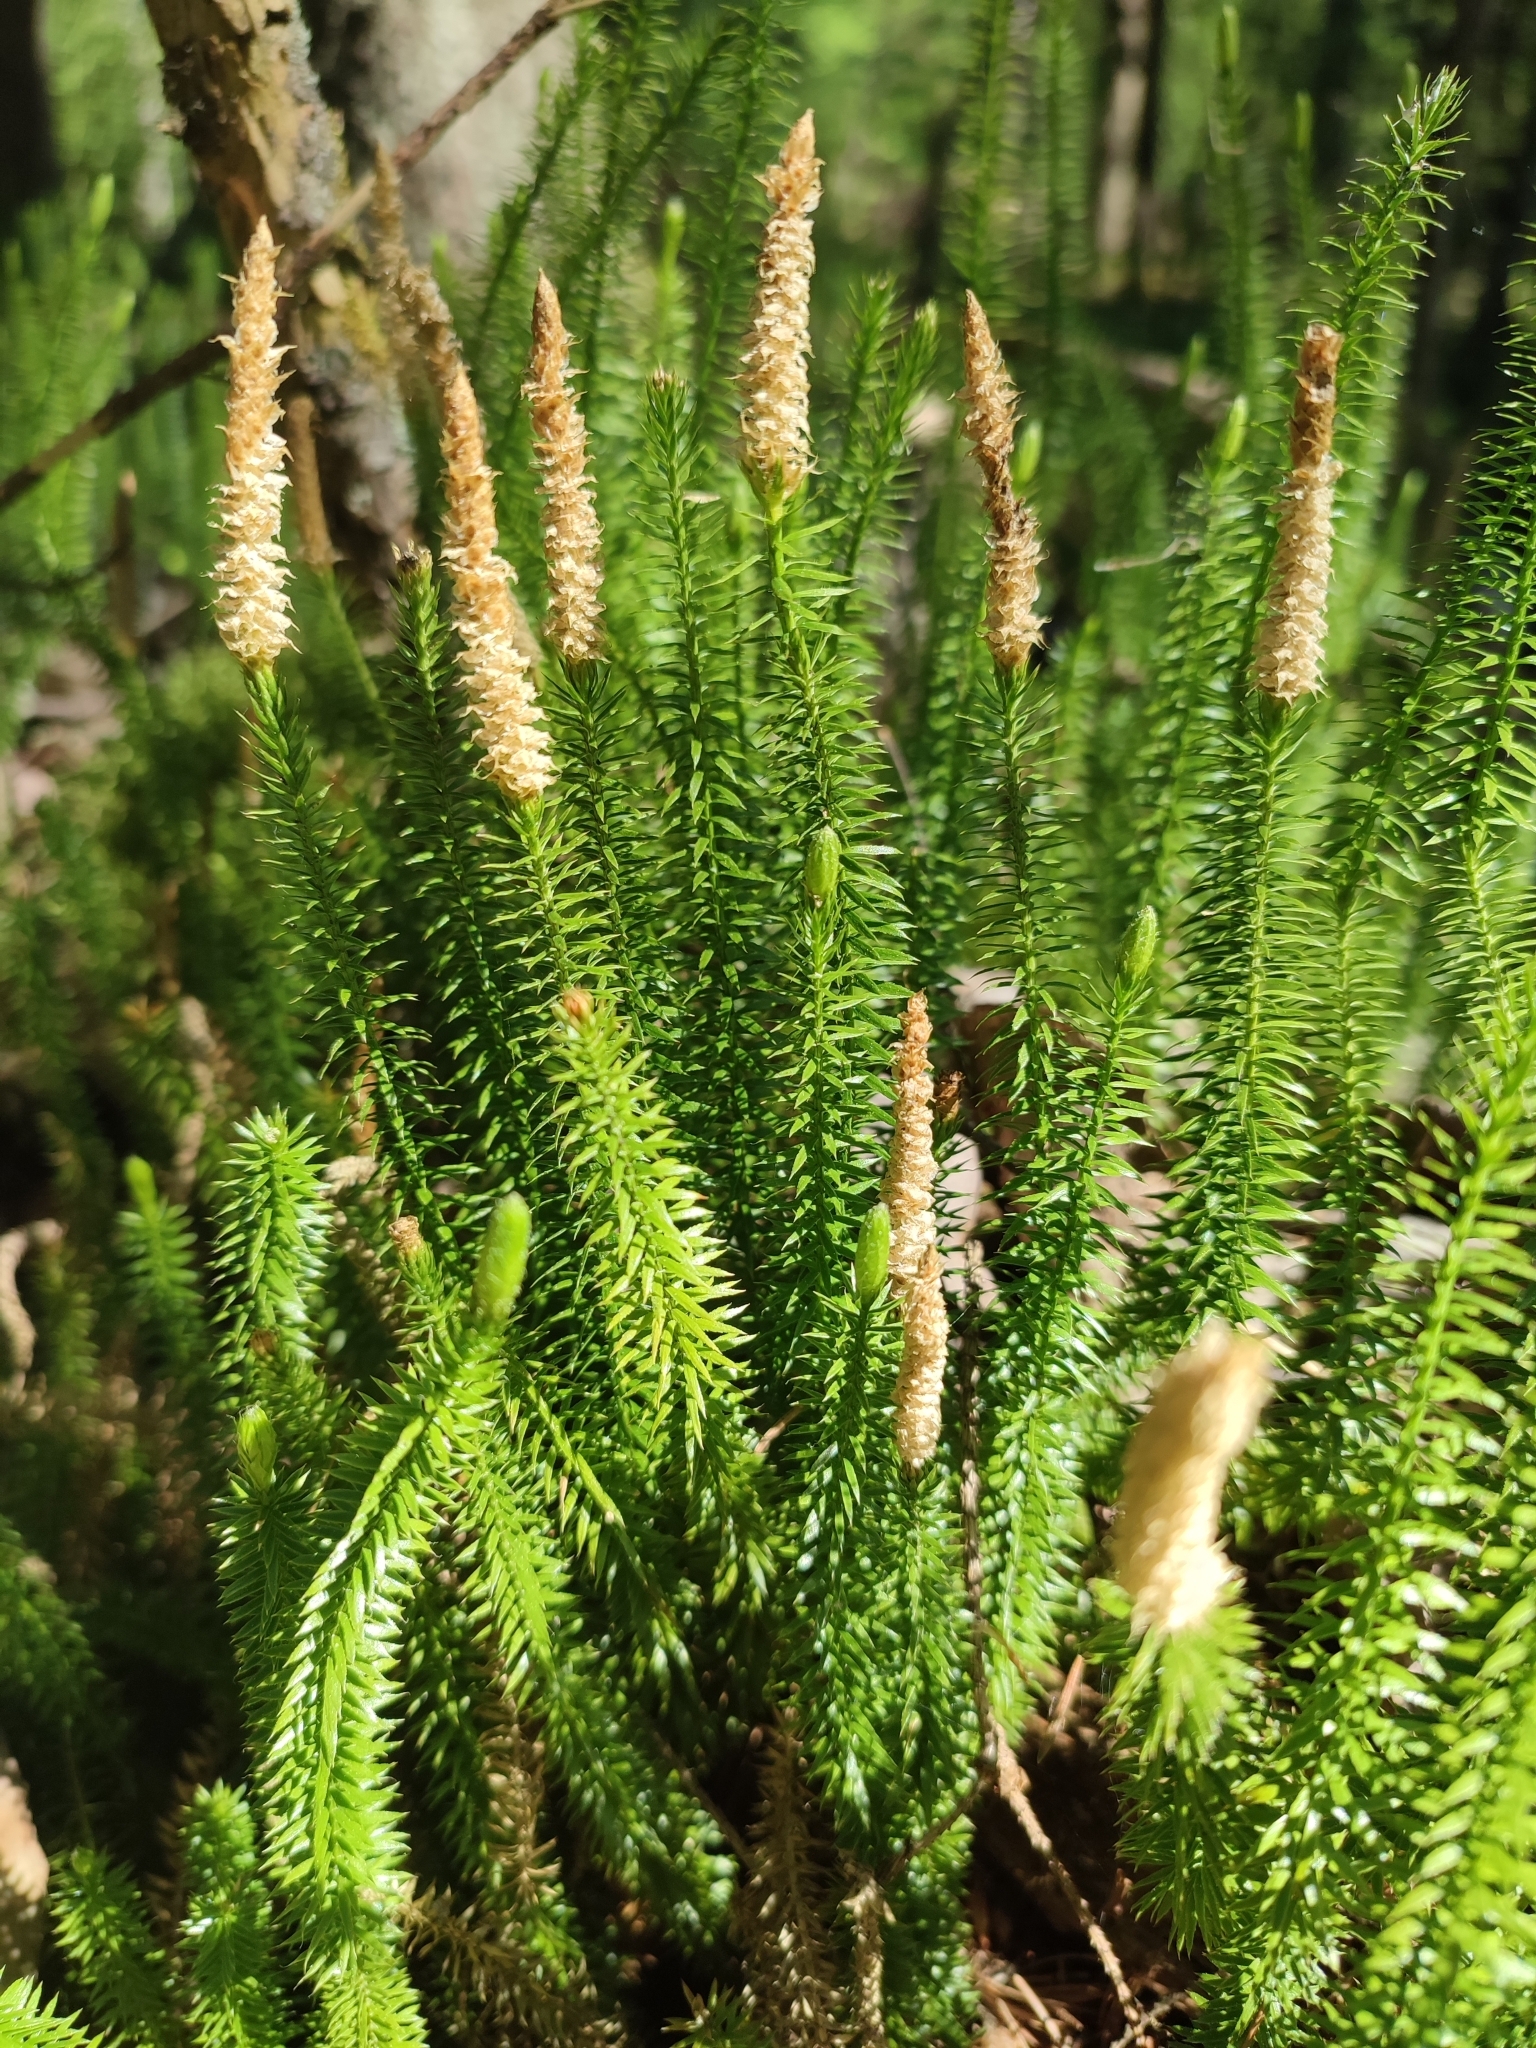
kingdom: Plantae
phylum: Tracheophyta
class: Lycopodiopsida
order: Lycopodiales
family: Lycopodiaceae
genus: Spinulum
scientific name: Spinulum annotinum
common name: Interrupted club-moss
